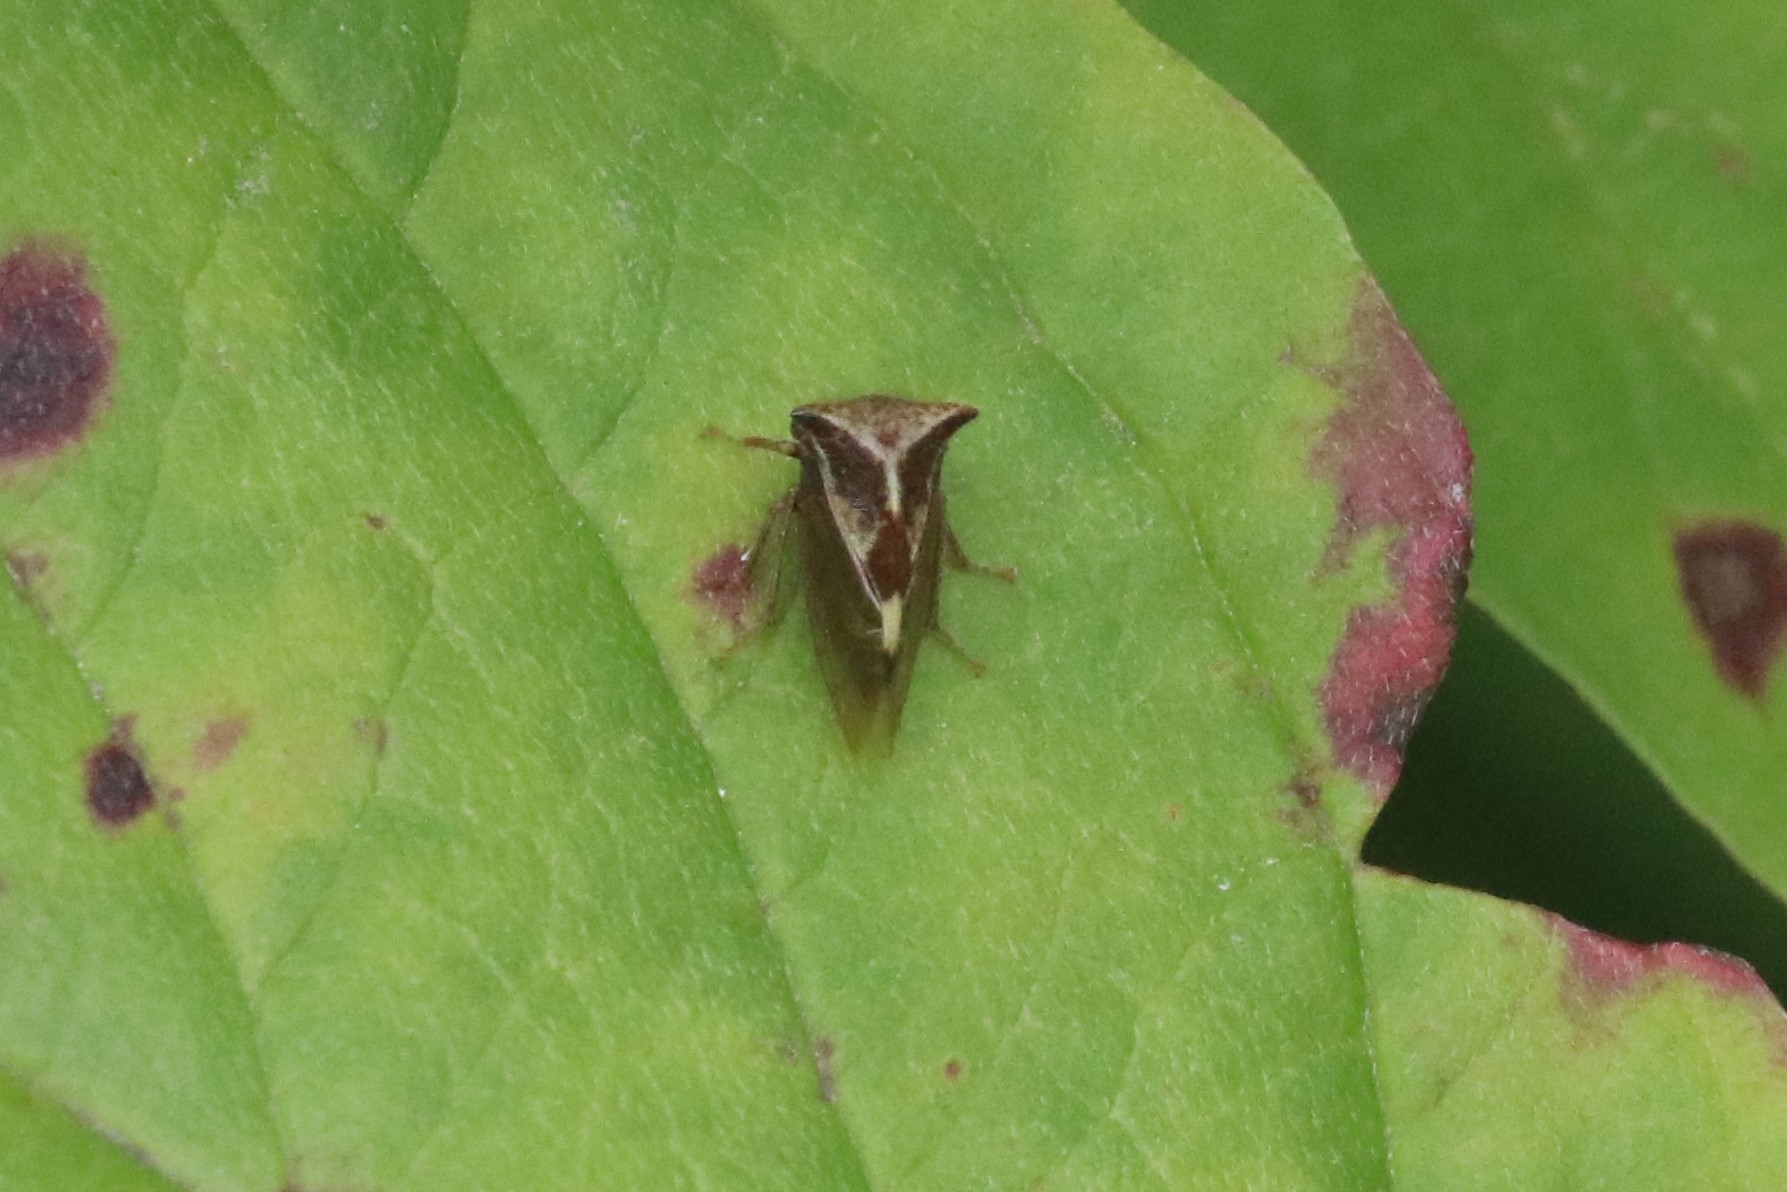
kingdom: Animalia
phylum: Arthropoda
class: Insecta
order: Hemiptera
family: Membracidae
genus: Stictocephala
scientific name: Stictocephala diceros
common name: Two-horned treehopper
